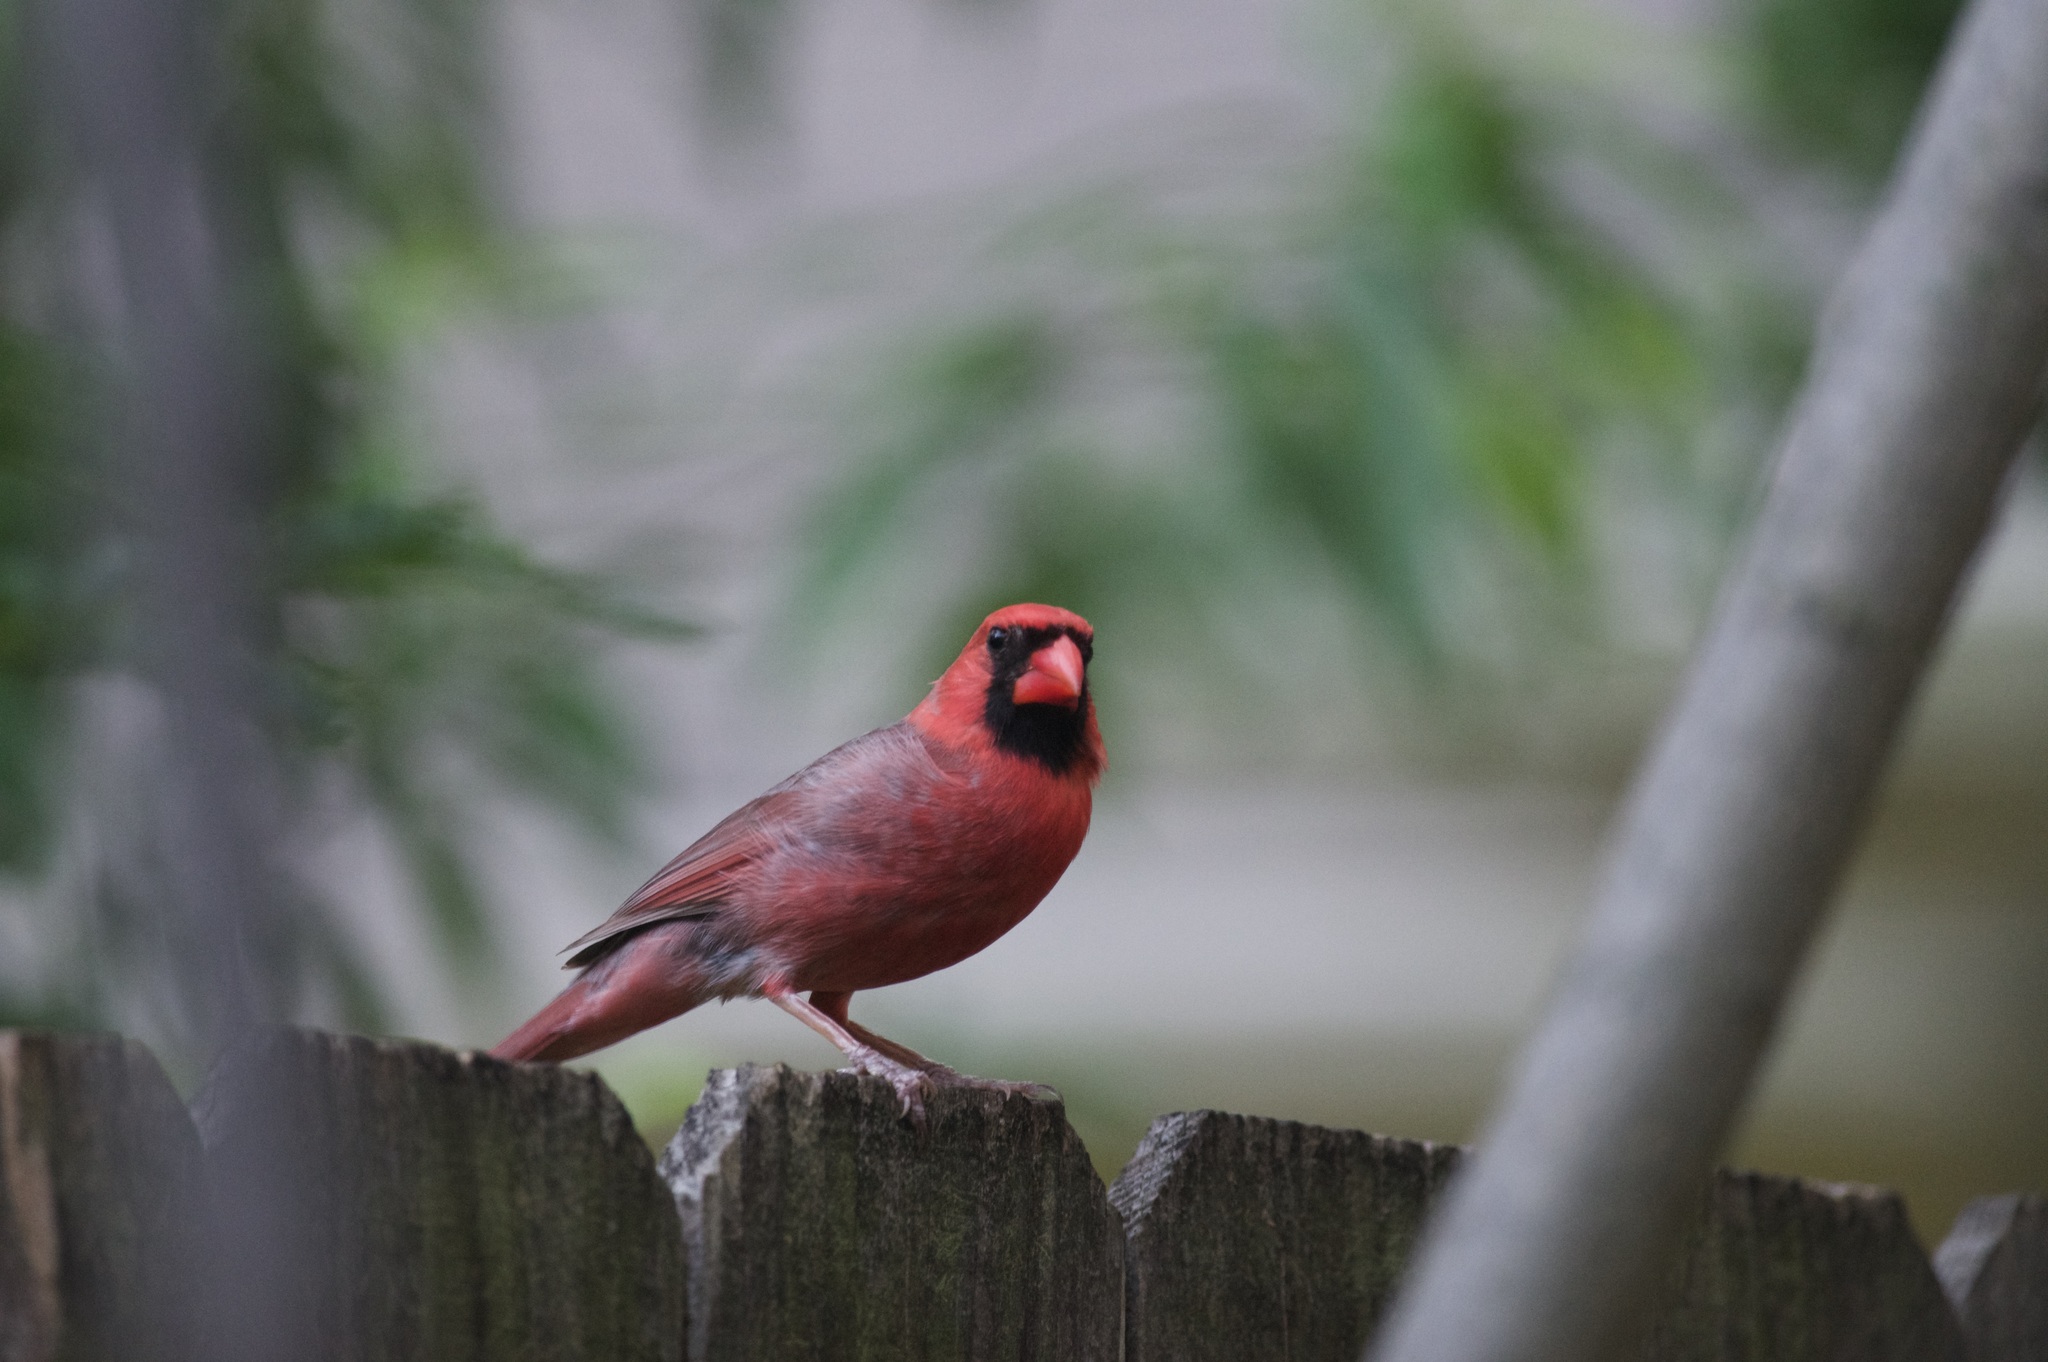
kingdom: Animalia
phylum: Chordata
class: Aves
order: Passeriformes
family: Cardinalidae
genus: Cardinalis
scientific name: Cardinalis cardinalis
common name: Northern cardinal
